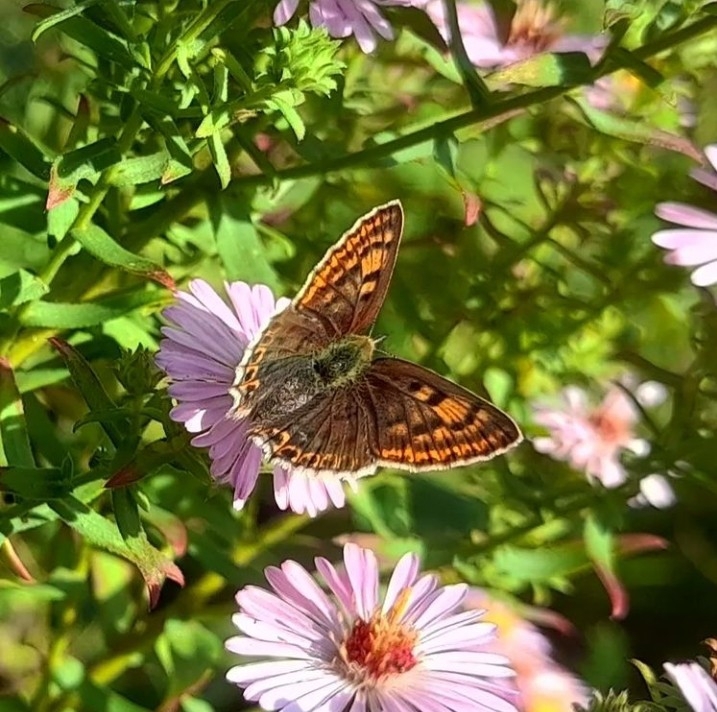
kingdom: Animalia
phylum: Arthropoda
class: Insecta
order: Lepidoptera
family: Lycaenidae
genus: Loweia
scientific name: Loweia tityrus
